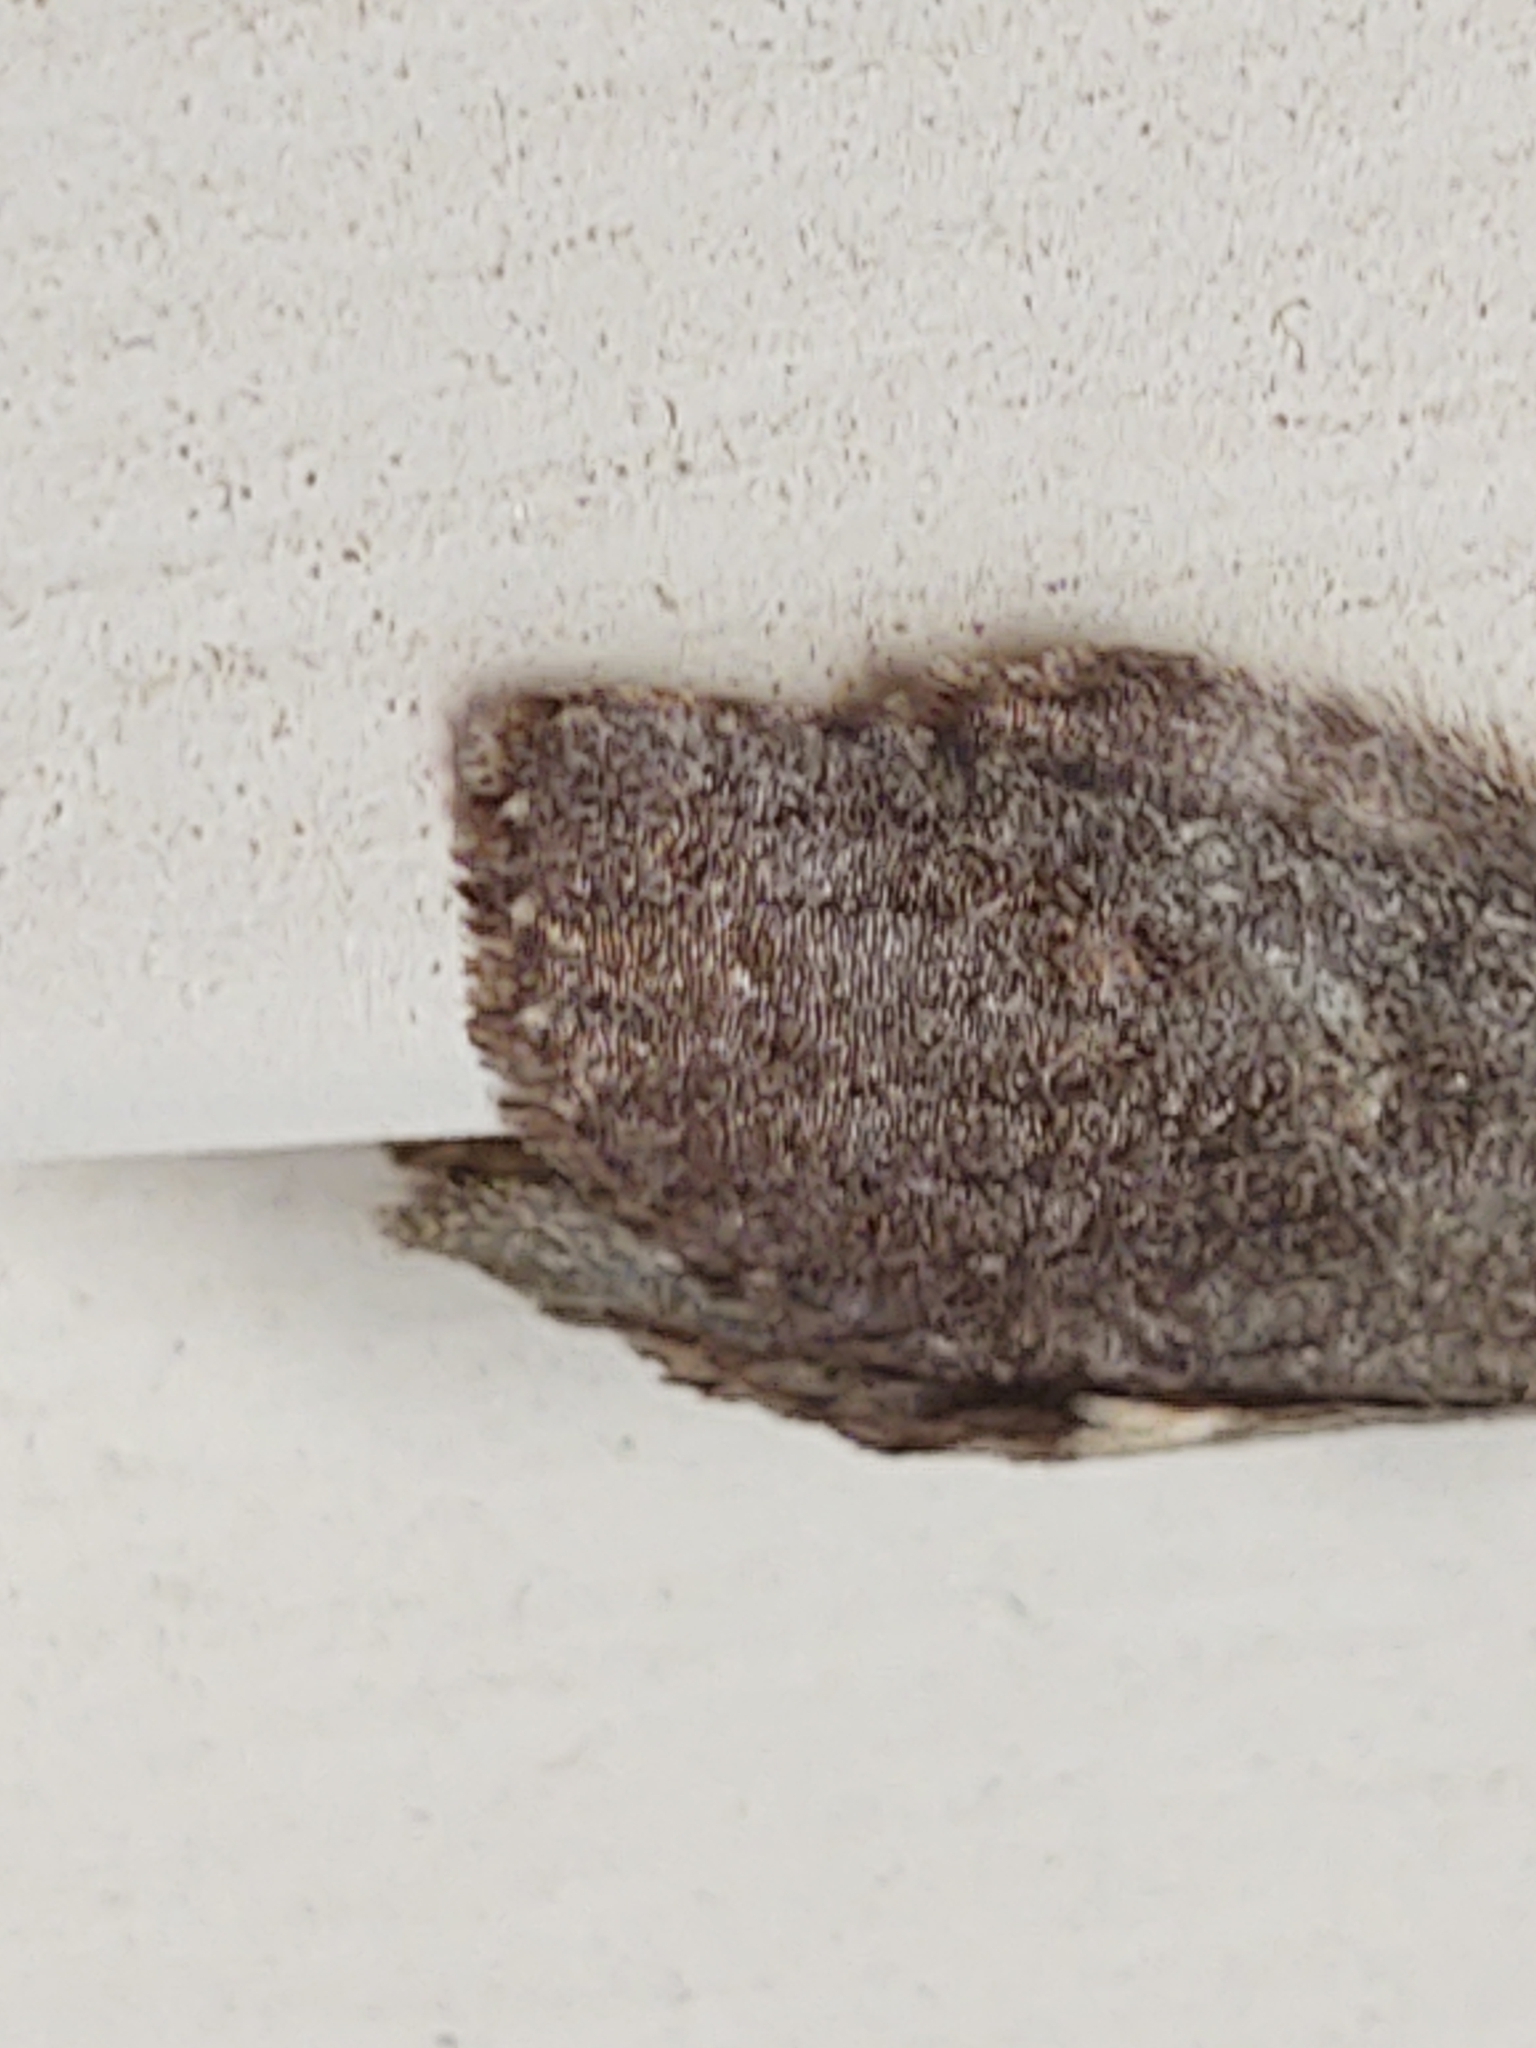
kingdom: Animalia
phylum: Arthropoda
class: Insecta
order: Lepidoptera
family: Notodontidae
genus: Disphragis
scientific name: Disphragis Cecrita guttivitta
